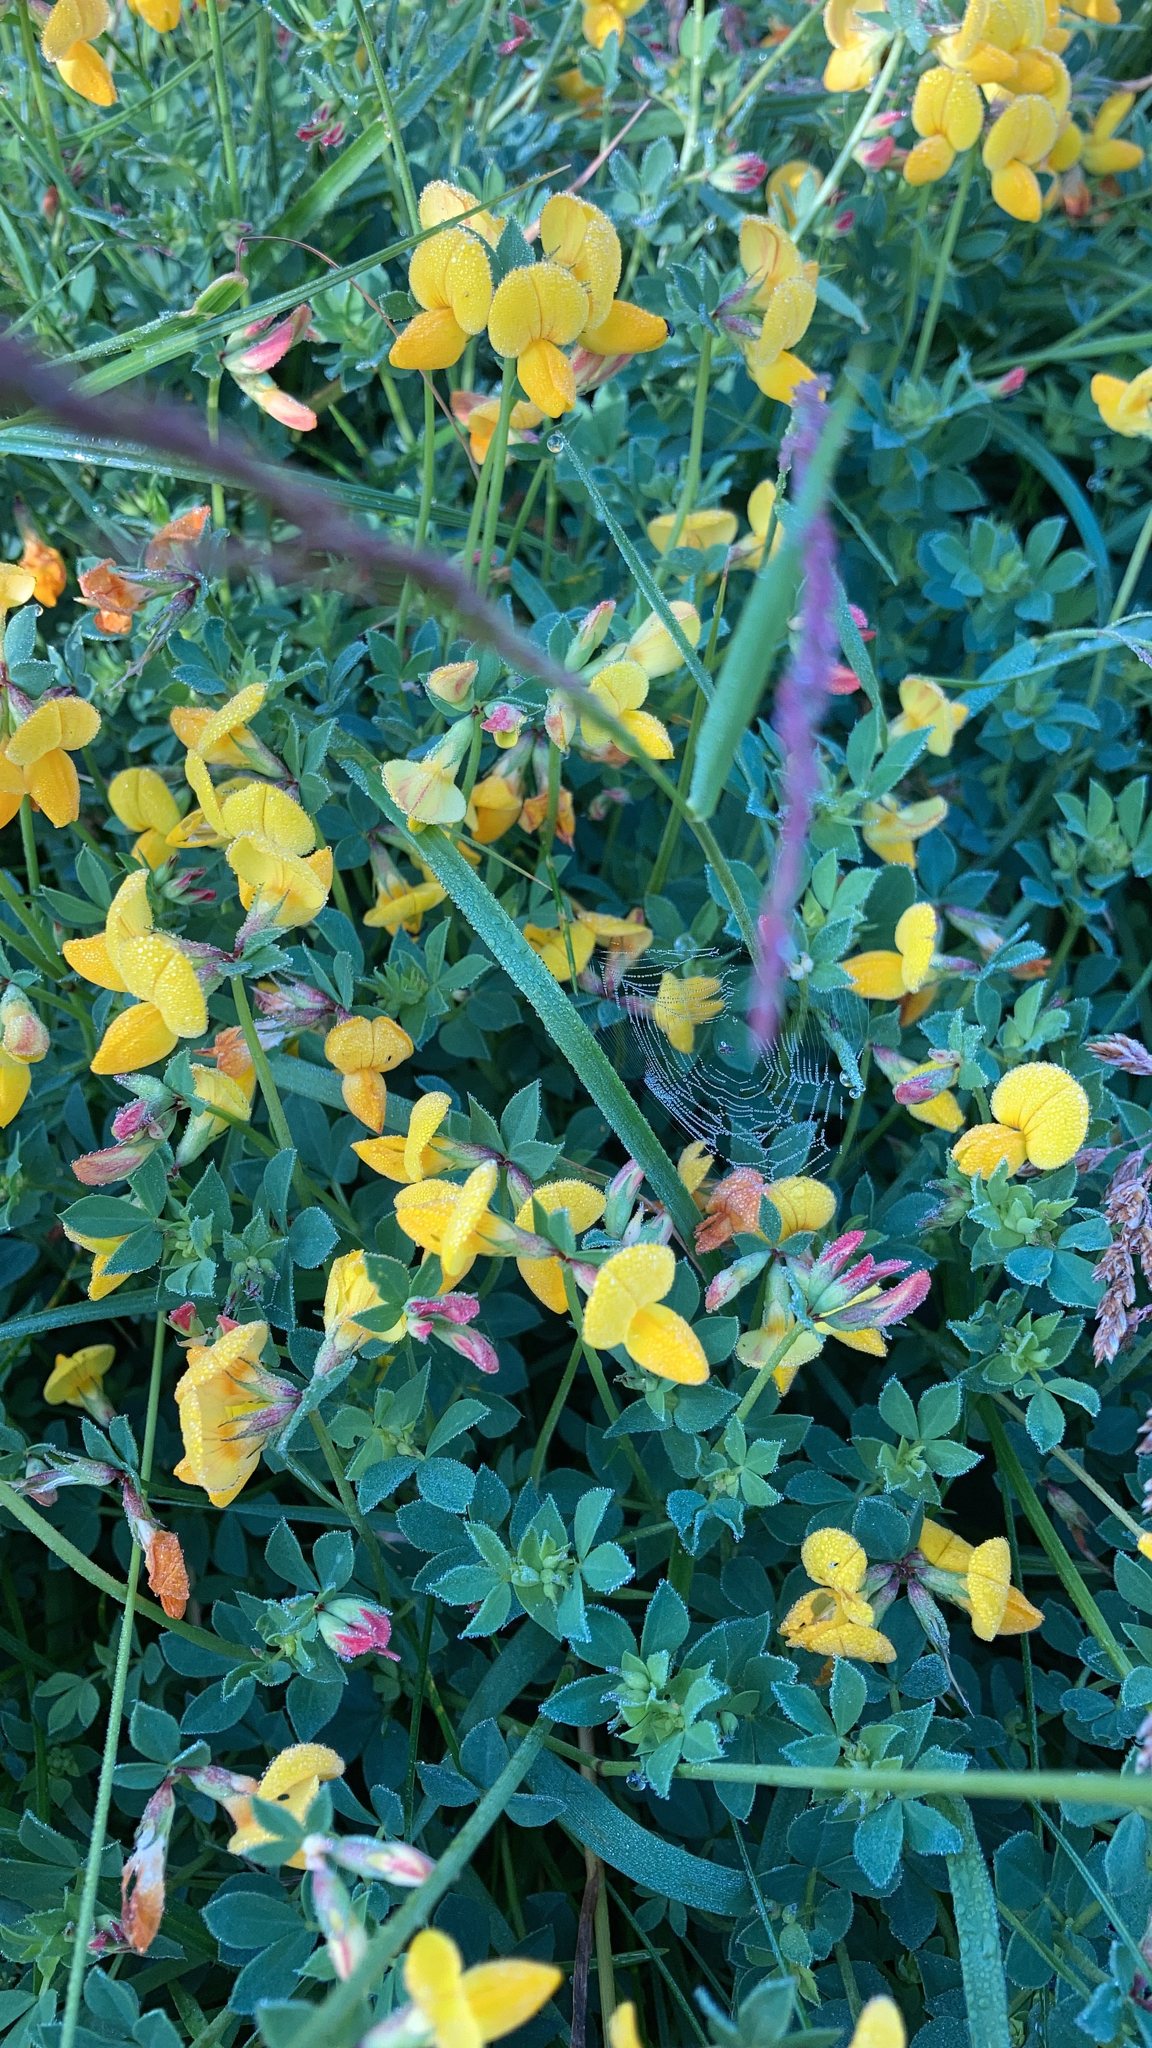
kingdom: Plantae
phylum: Tracheophyta
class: Magnoliopsida
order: Fabales
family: Fabaceae
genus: Lotus
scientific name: Lotus corniculatus
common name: Common bird's-foot-trefoil
